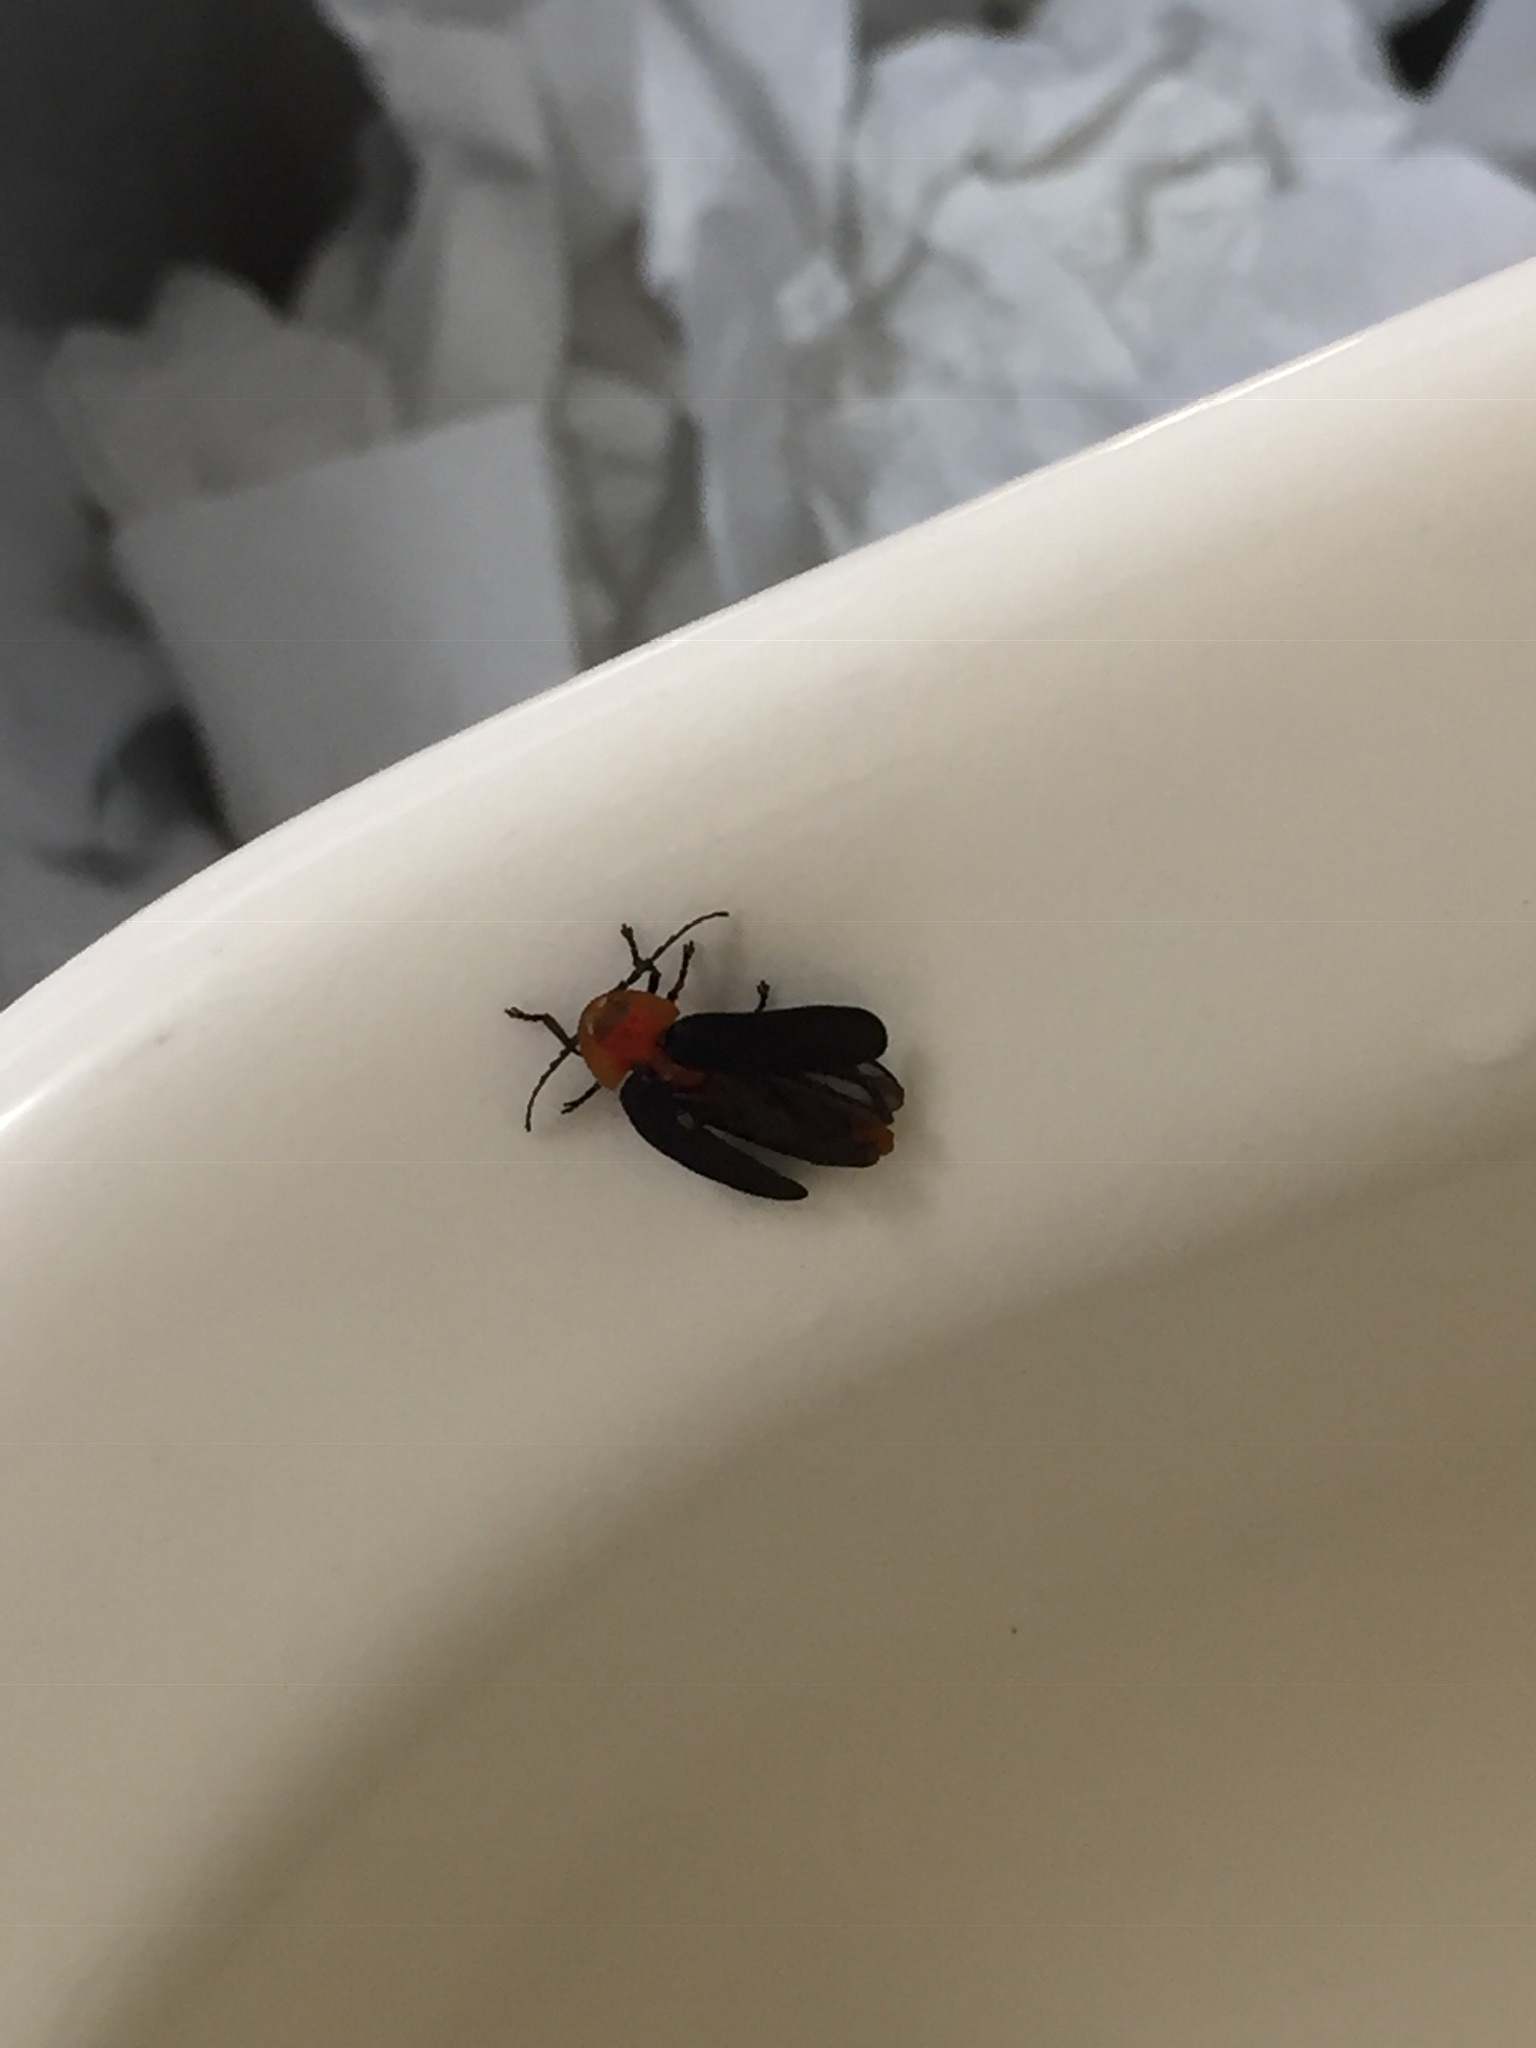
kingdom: Animalia
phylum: Arthropoda
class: Insecta
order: Coleoptera
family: Lampyridae
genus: Pyrocoelia
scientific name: Pyrocoelia atripennis
